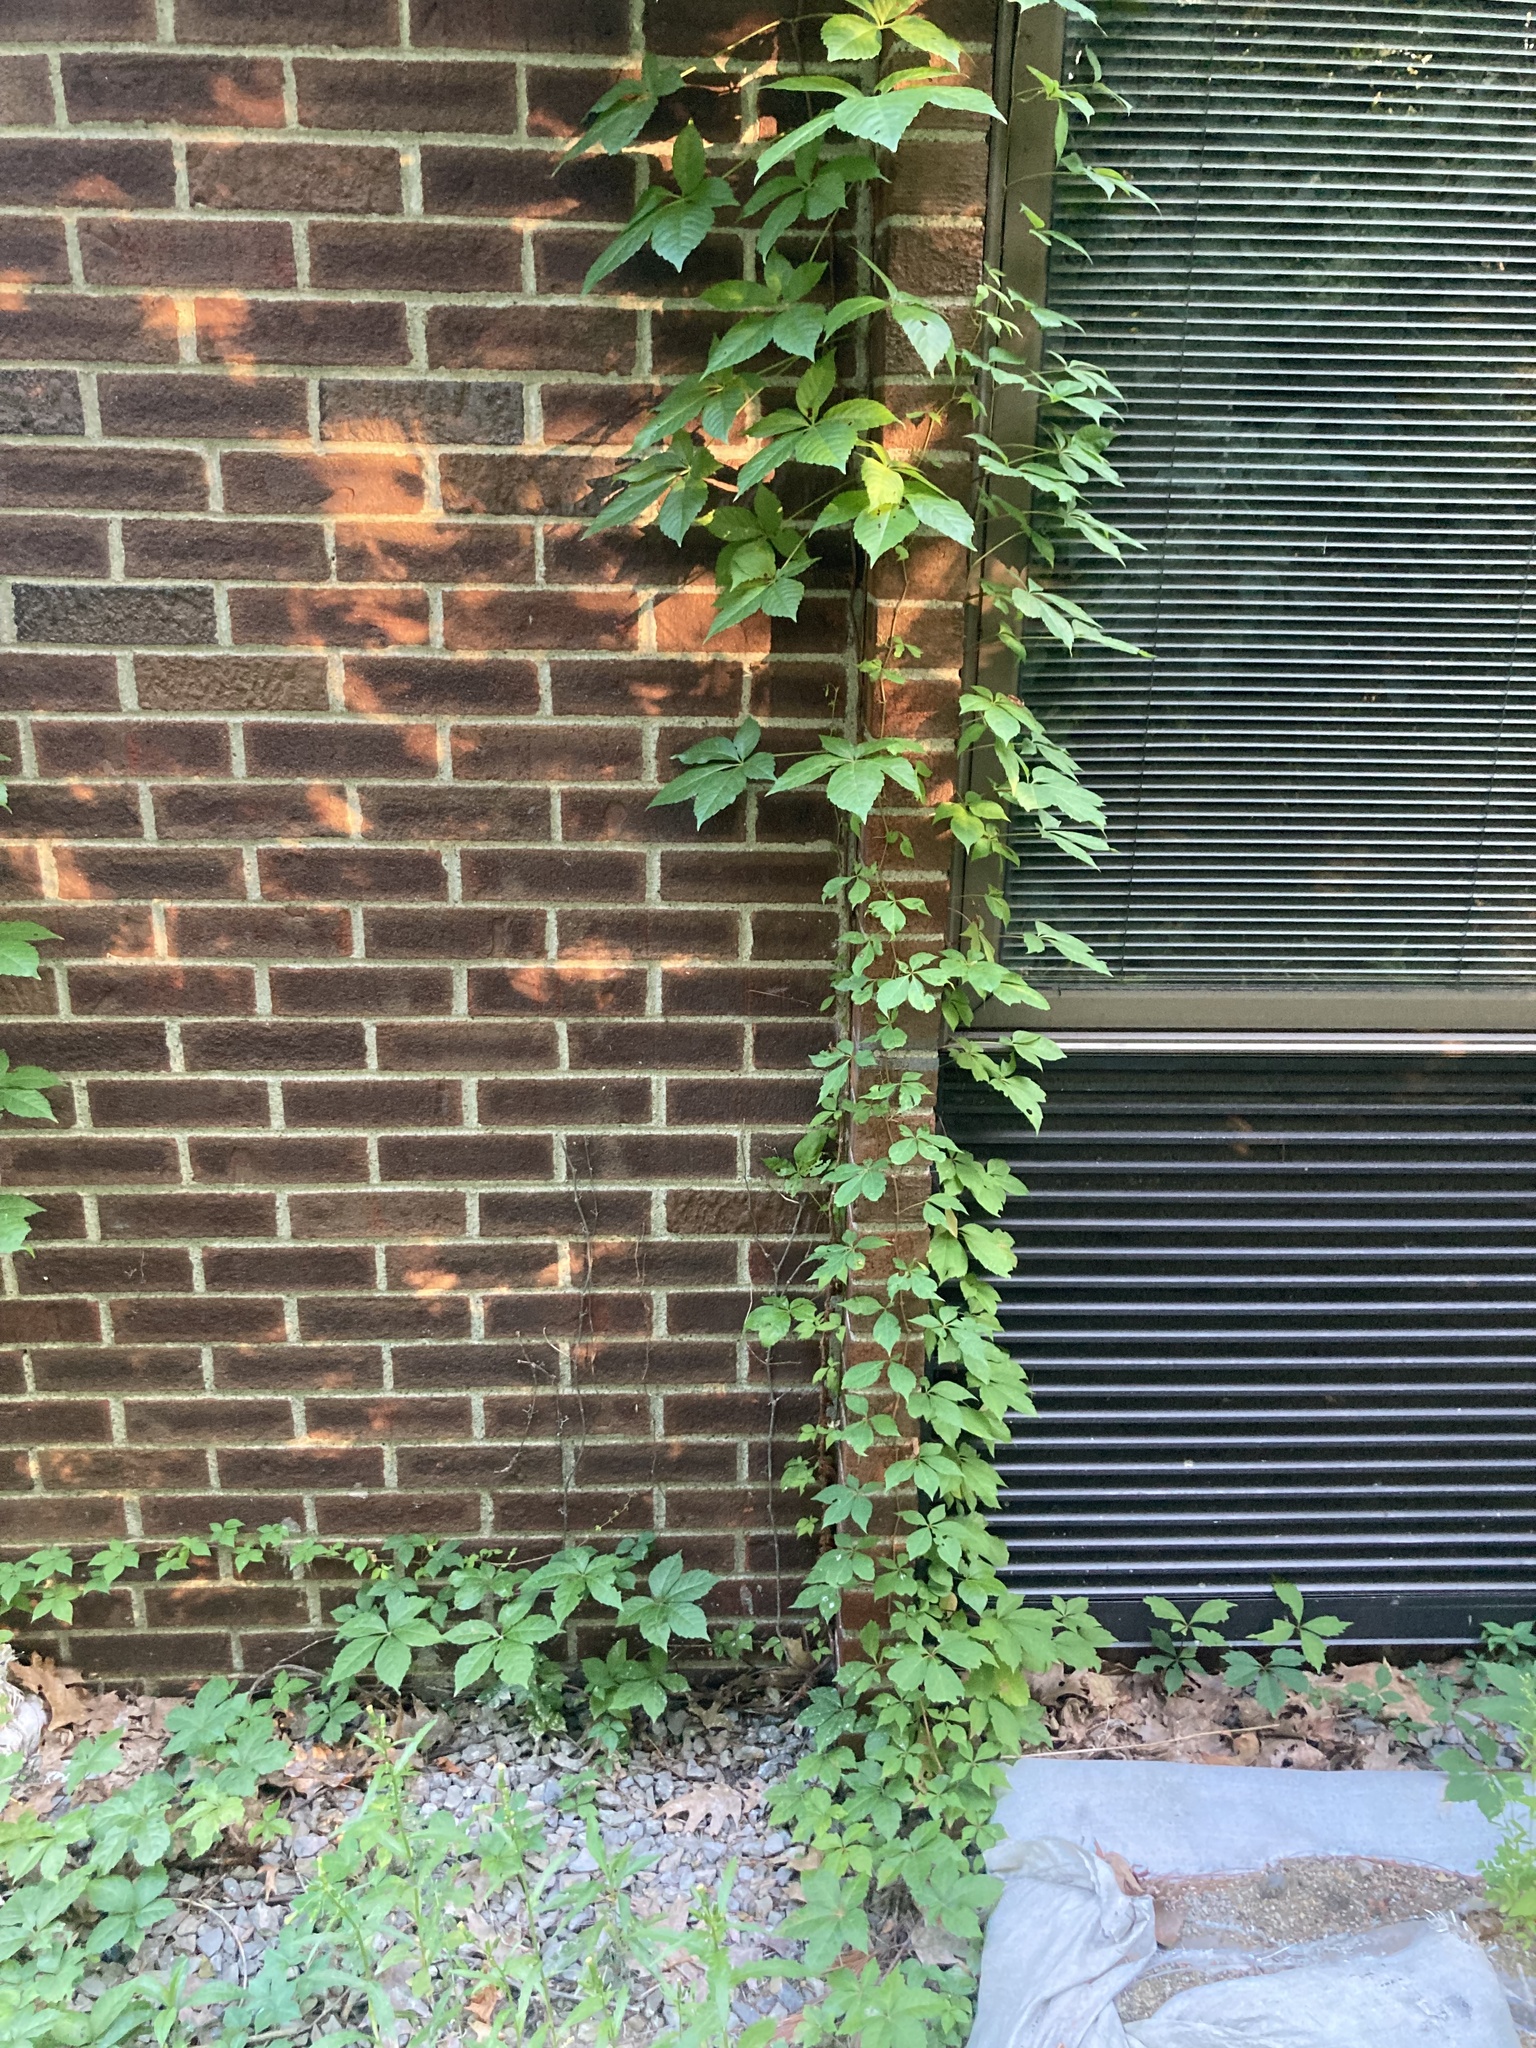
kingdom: Plantae
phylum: Tracheophyta
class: Magnoliopsida
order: Vitales
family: Vitaceae
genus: Parthenocissus
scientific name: Parthenocissus quinquefolia
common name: Virginia-creeper
